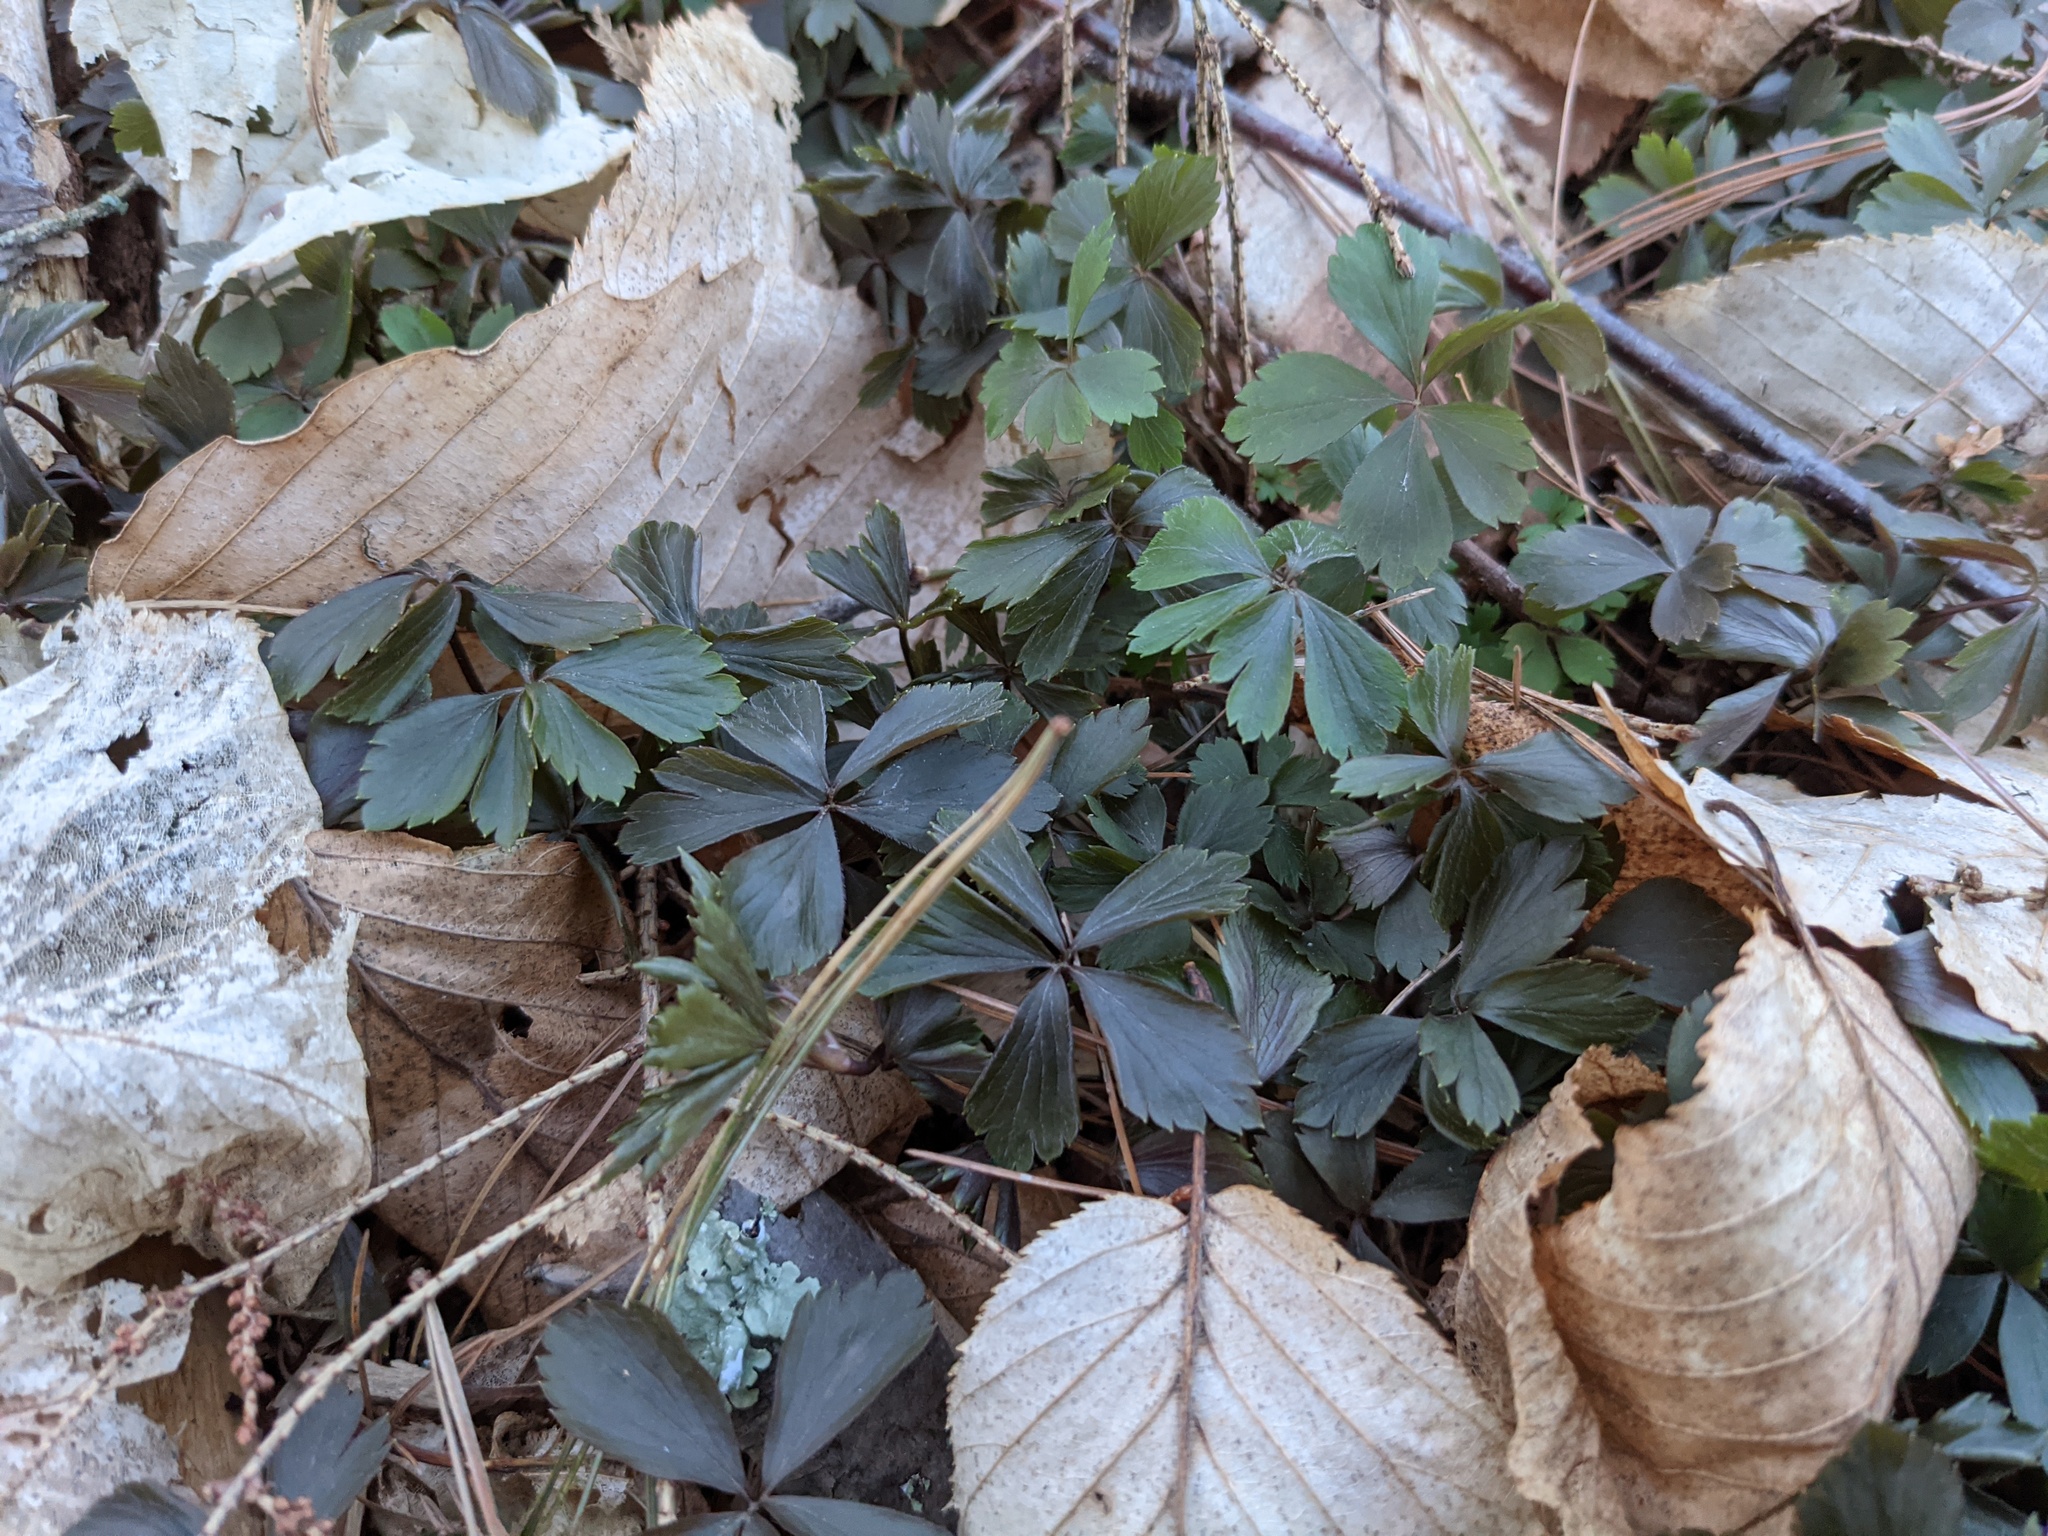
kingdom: Plantae
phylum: Tracheophyta
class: Magnoliopsida
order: Ranunculales
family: Ranunculaceae
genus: Anemone
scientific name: Anemone quinquefolia
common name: Wood anemone
